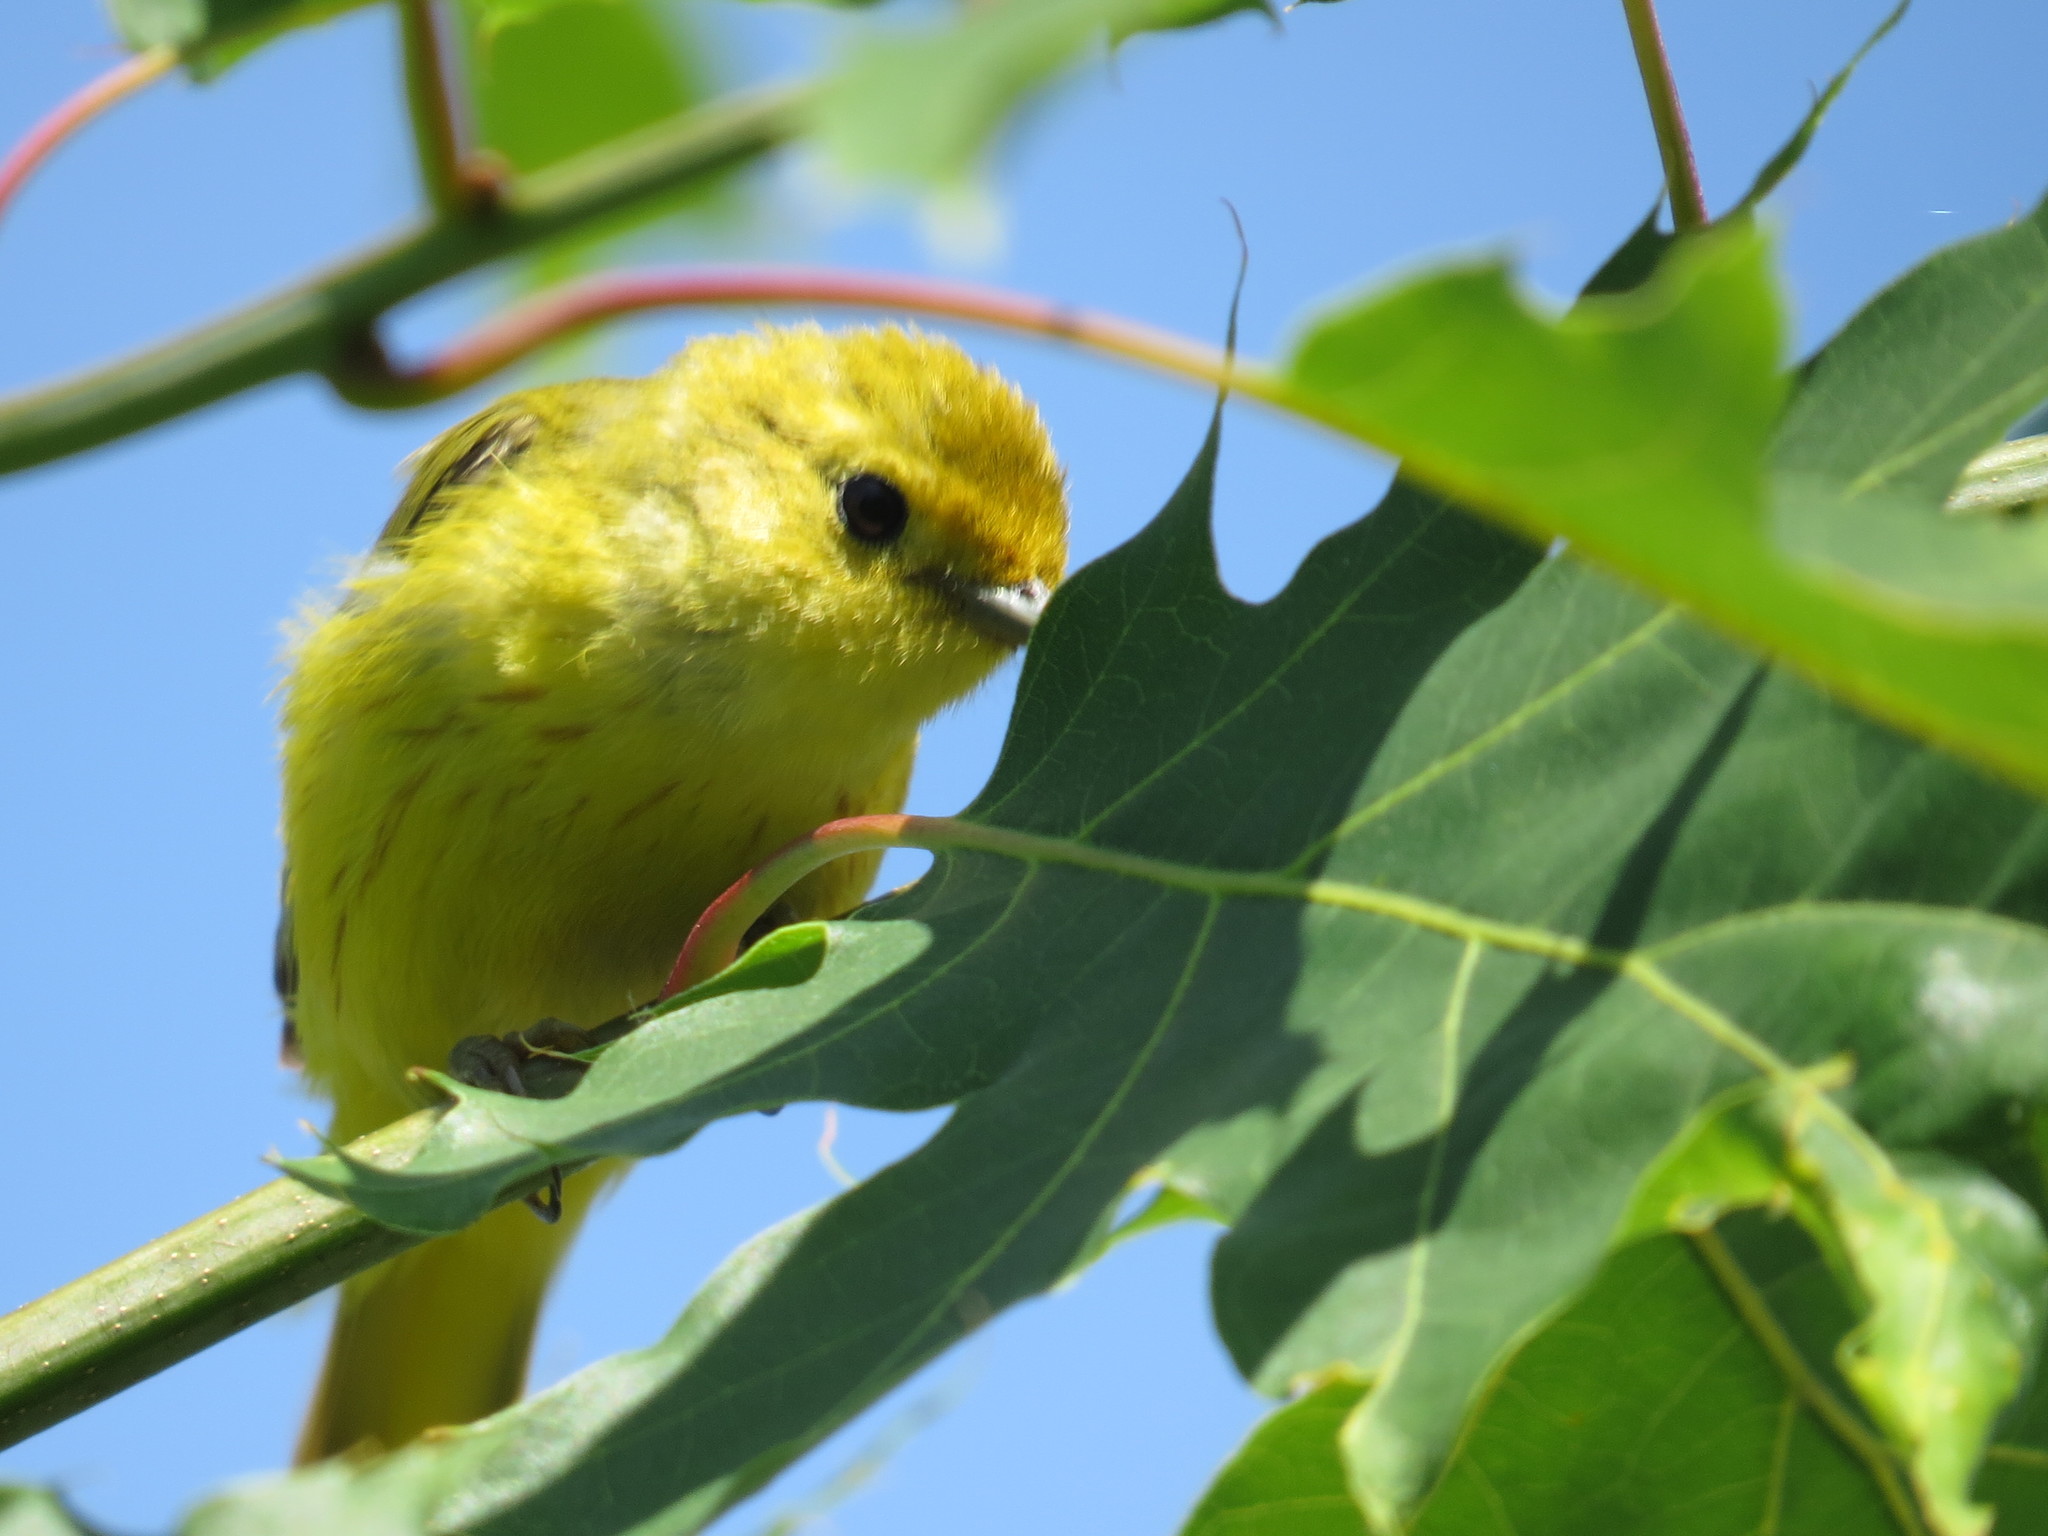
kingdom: Animalia
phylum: Chordata
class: Aves
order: Passeriformes
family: Parulidae
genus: Setophaga
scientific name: Setophaga petechia
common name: Yellow warbler
